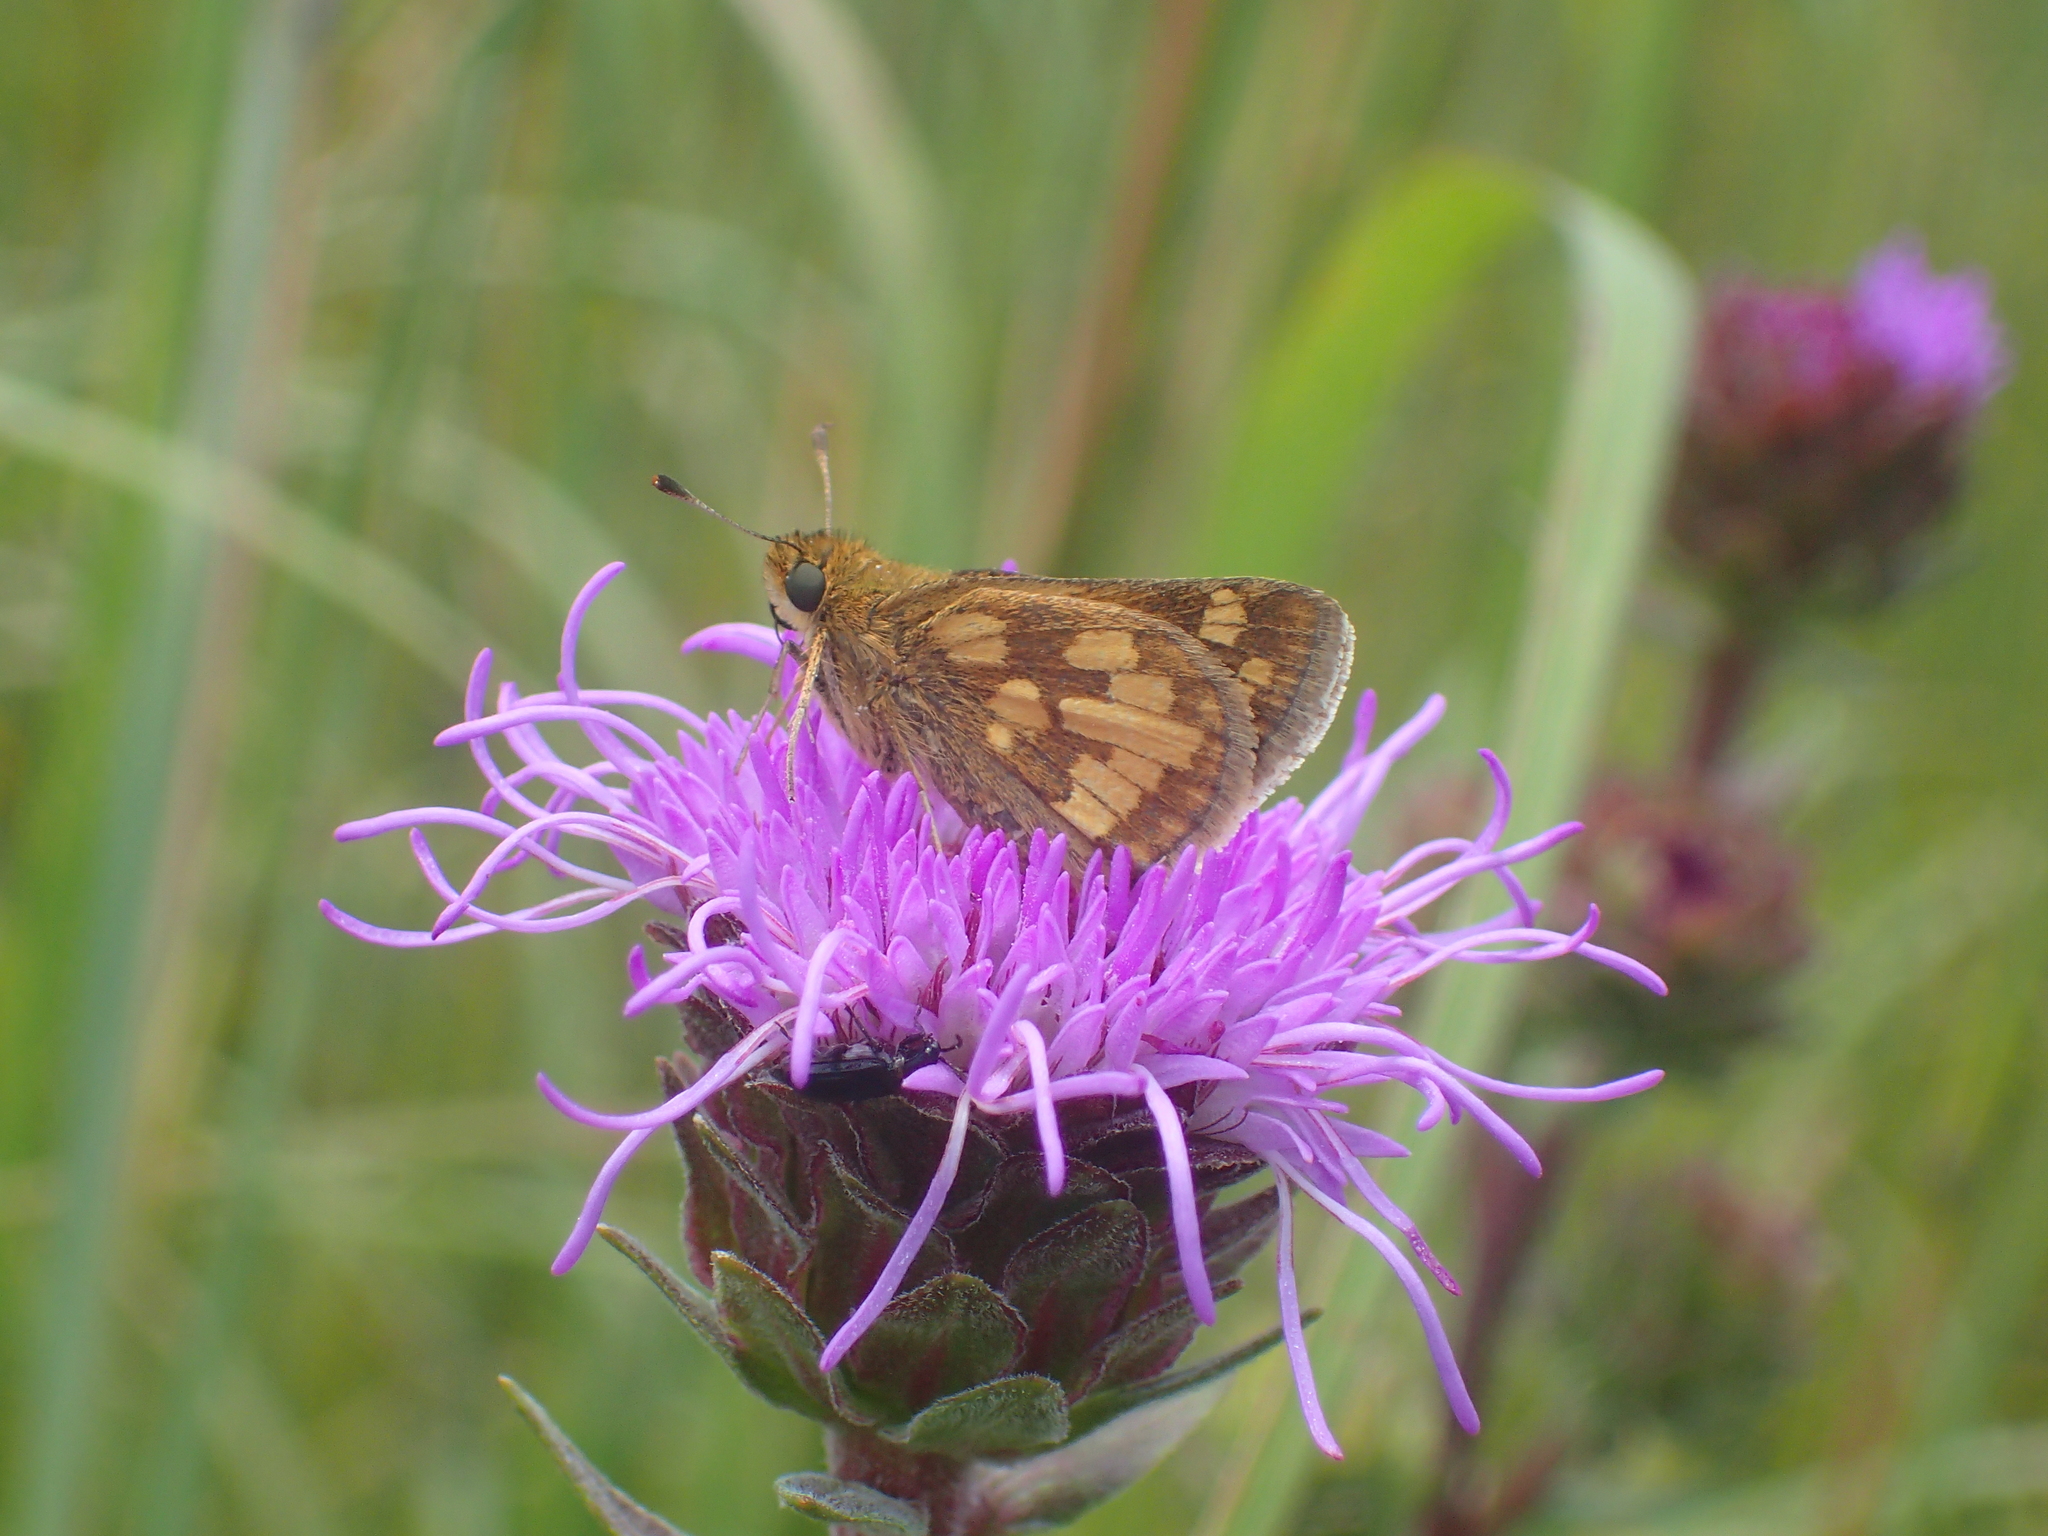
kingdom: Animalia
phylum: Arthropoda
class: Insecta
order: Lepidoptera
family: Hesperiidae
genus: Polites
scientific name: Polites coras
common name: Peck's skipper
